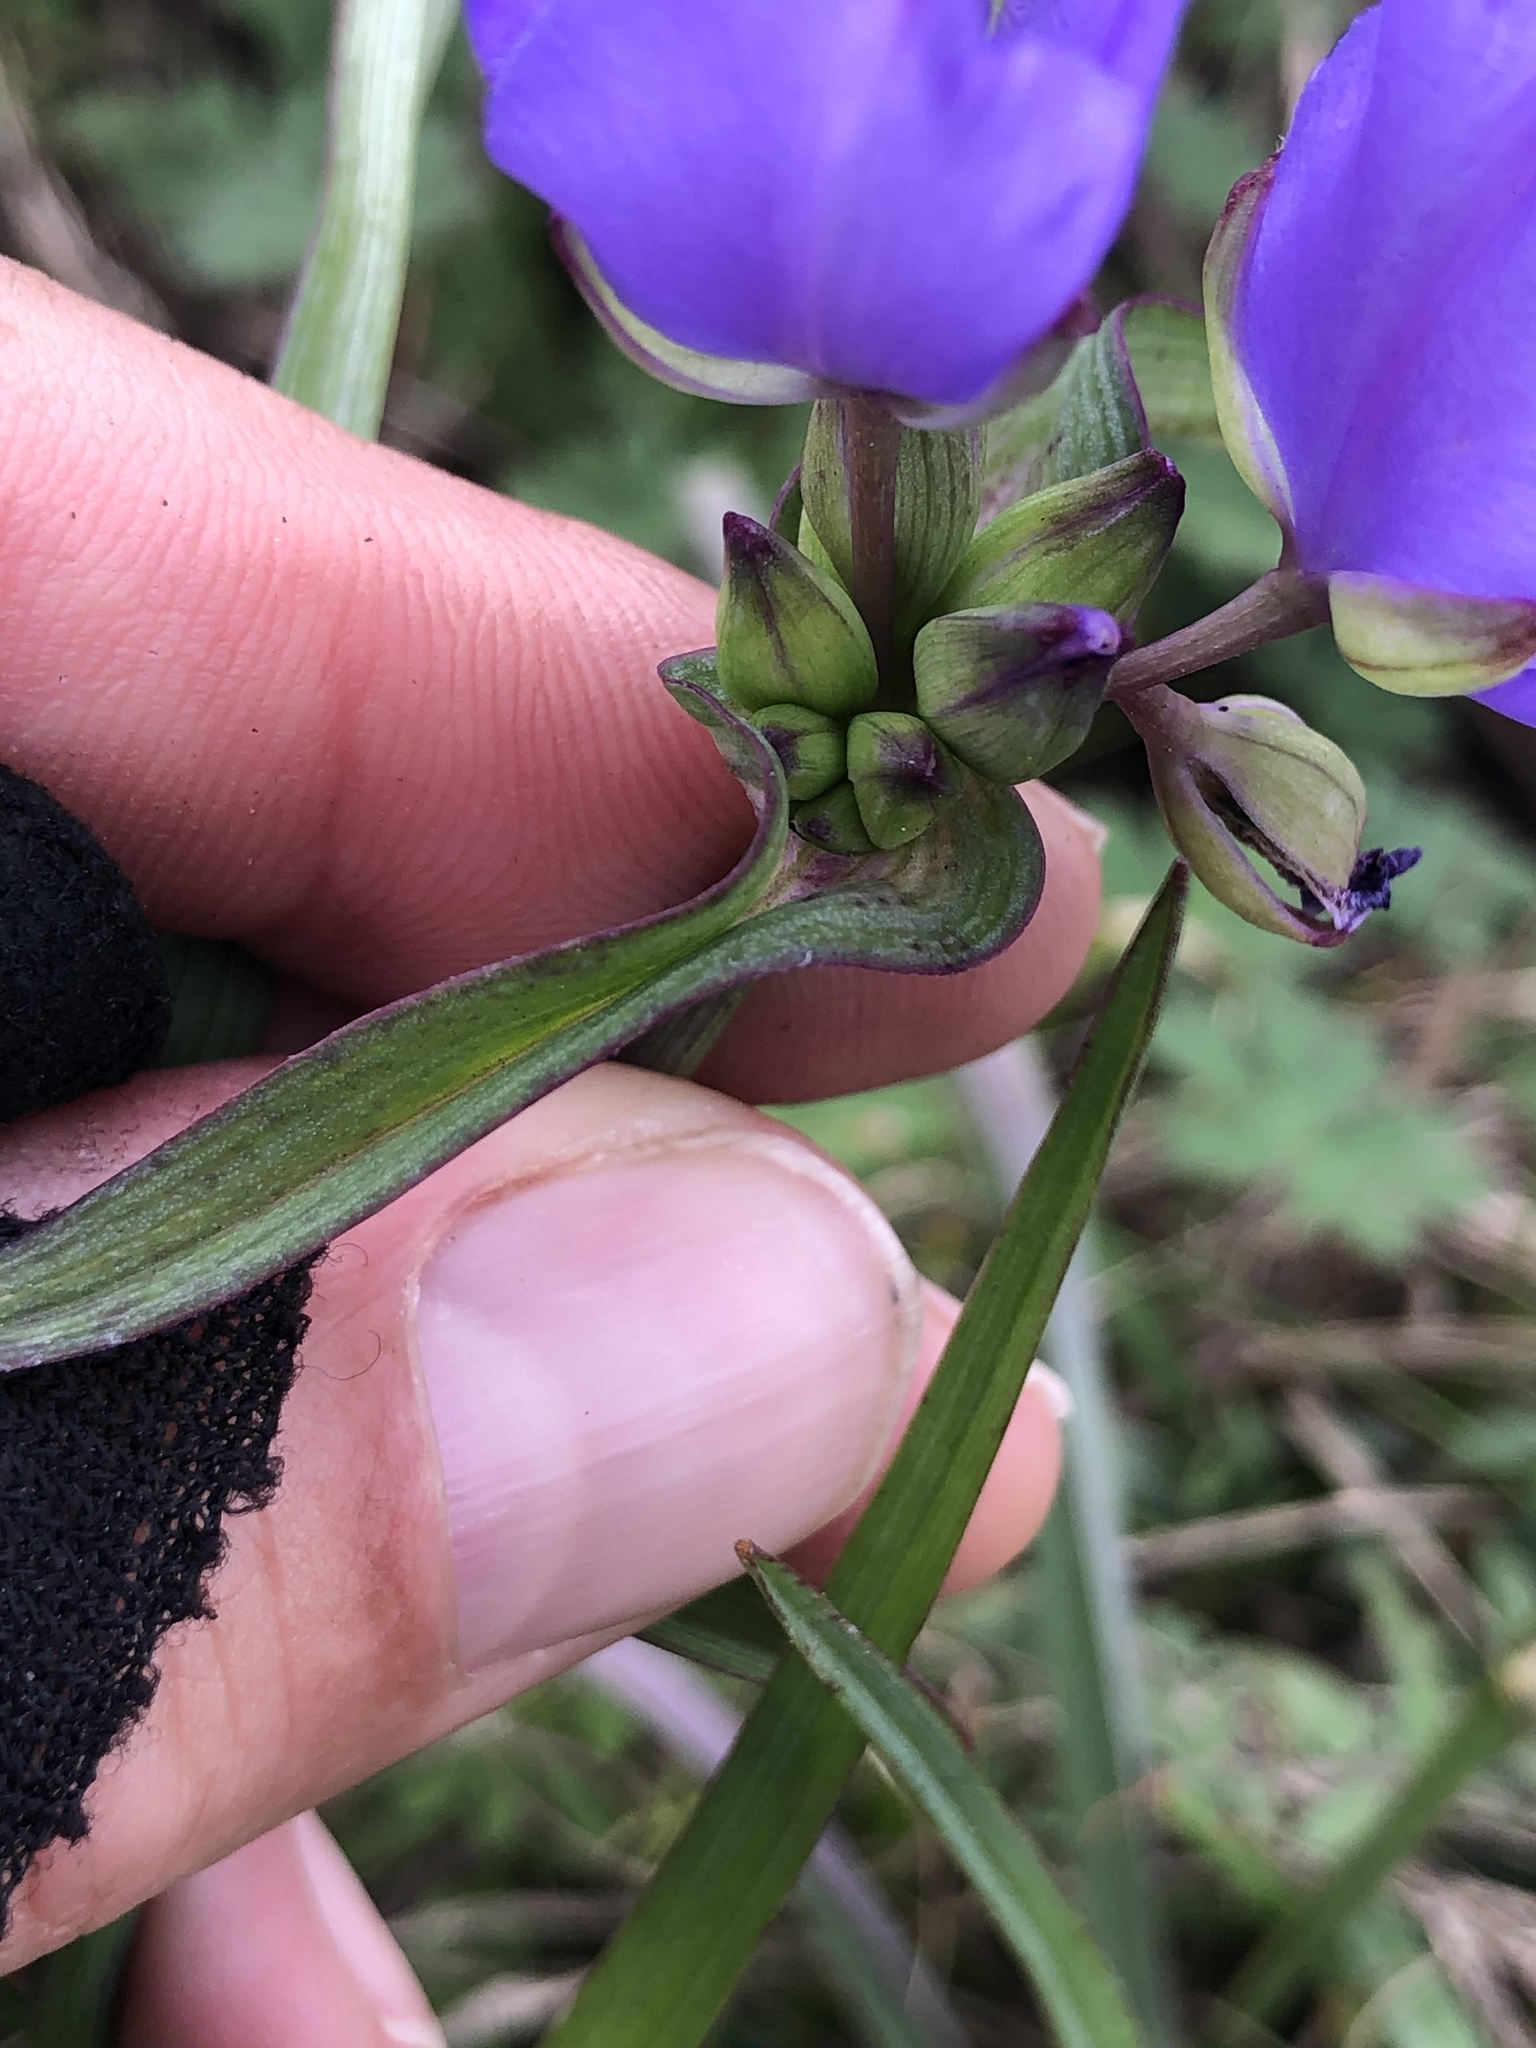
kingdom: Plantae
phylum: Tracheophyta
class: Liliopsida
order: Commelinales
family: Commelinaceae
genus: Tradescantia
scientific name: Tradescantia ohiensis
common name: Ohio spiderwort
